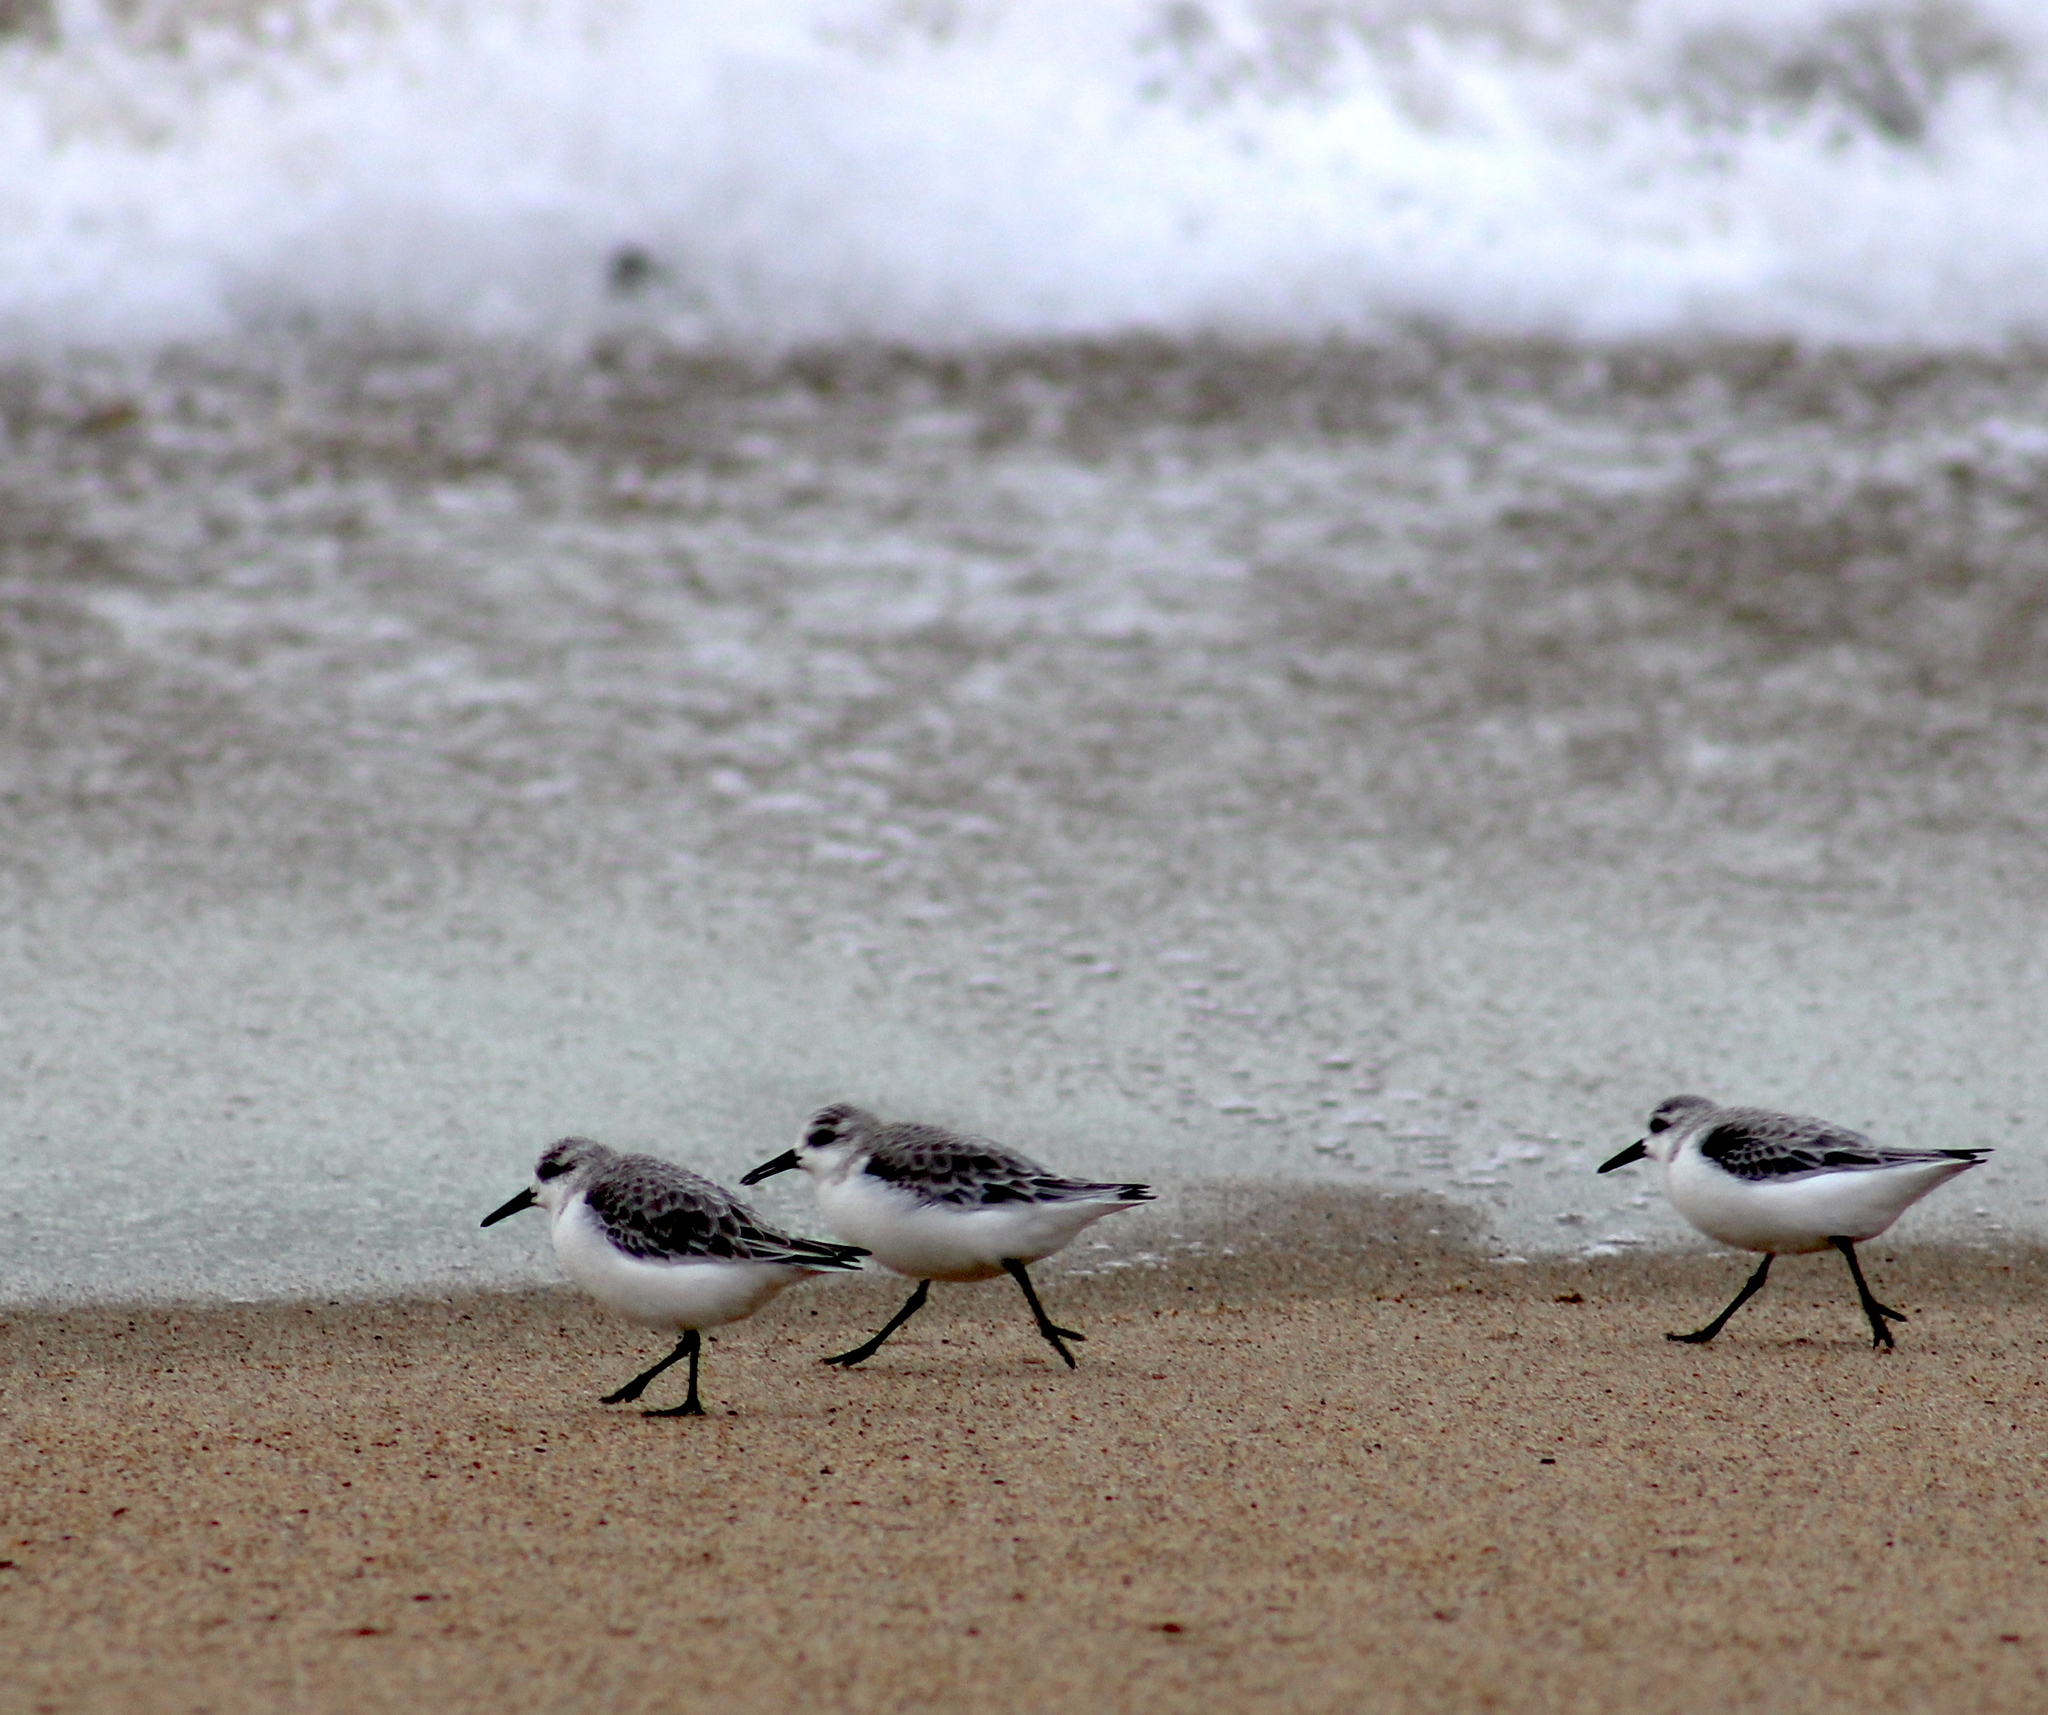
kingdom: Animalia
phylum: Chordata
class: Aves
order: Charadriiformes
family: Scolopacidae
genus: Calidris
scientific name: Calidris alba
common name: Sanderling
